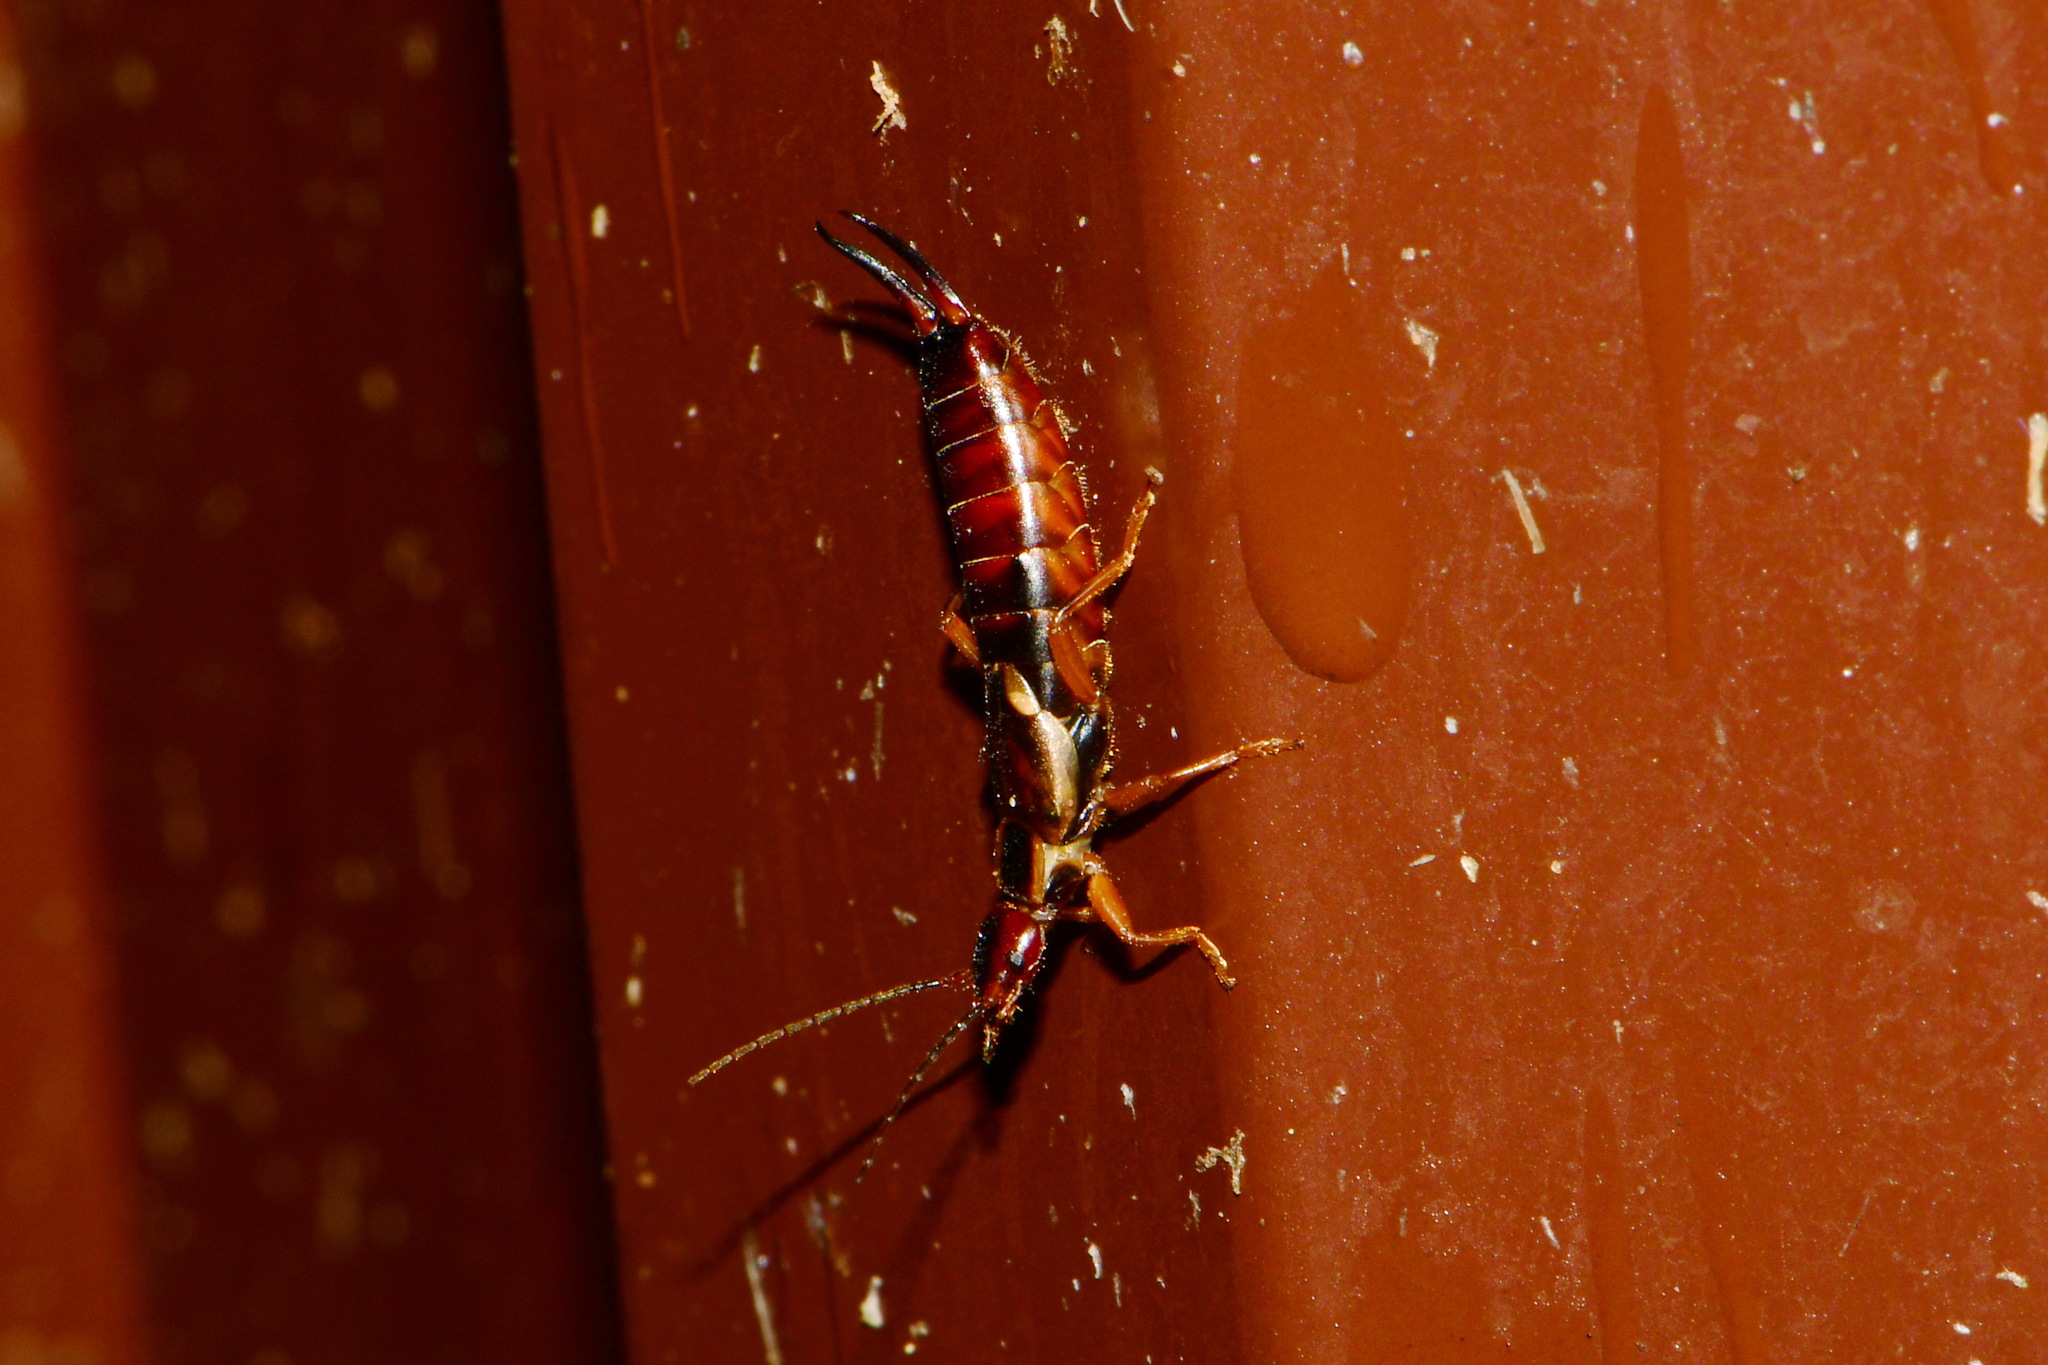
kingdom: Animalia
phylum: Arthropoda
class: Insecta
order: Dermaptera
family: Forficulidae
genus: Forficula
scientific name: Forficula
